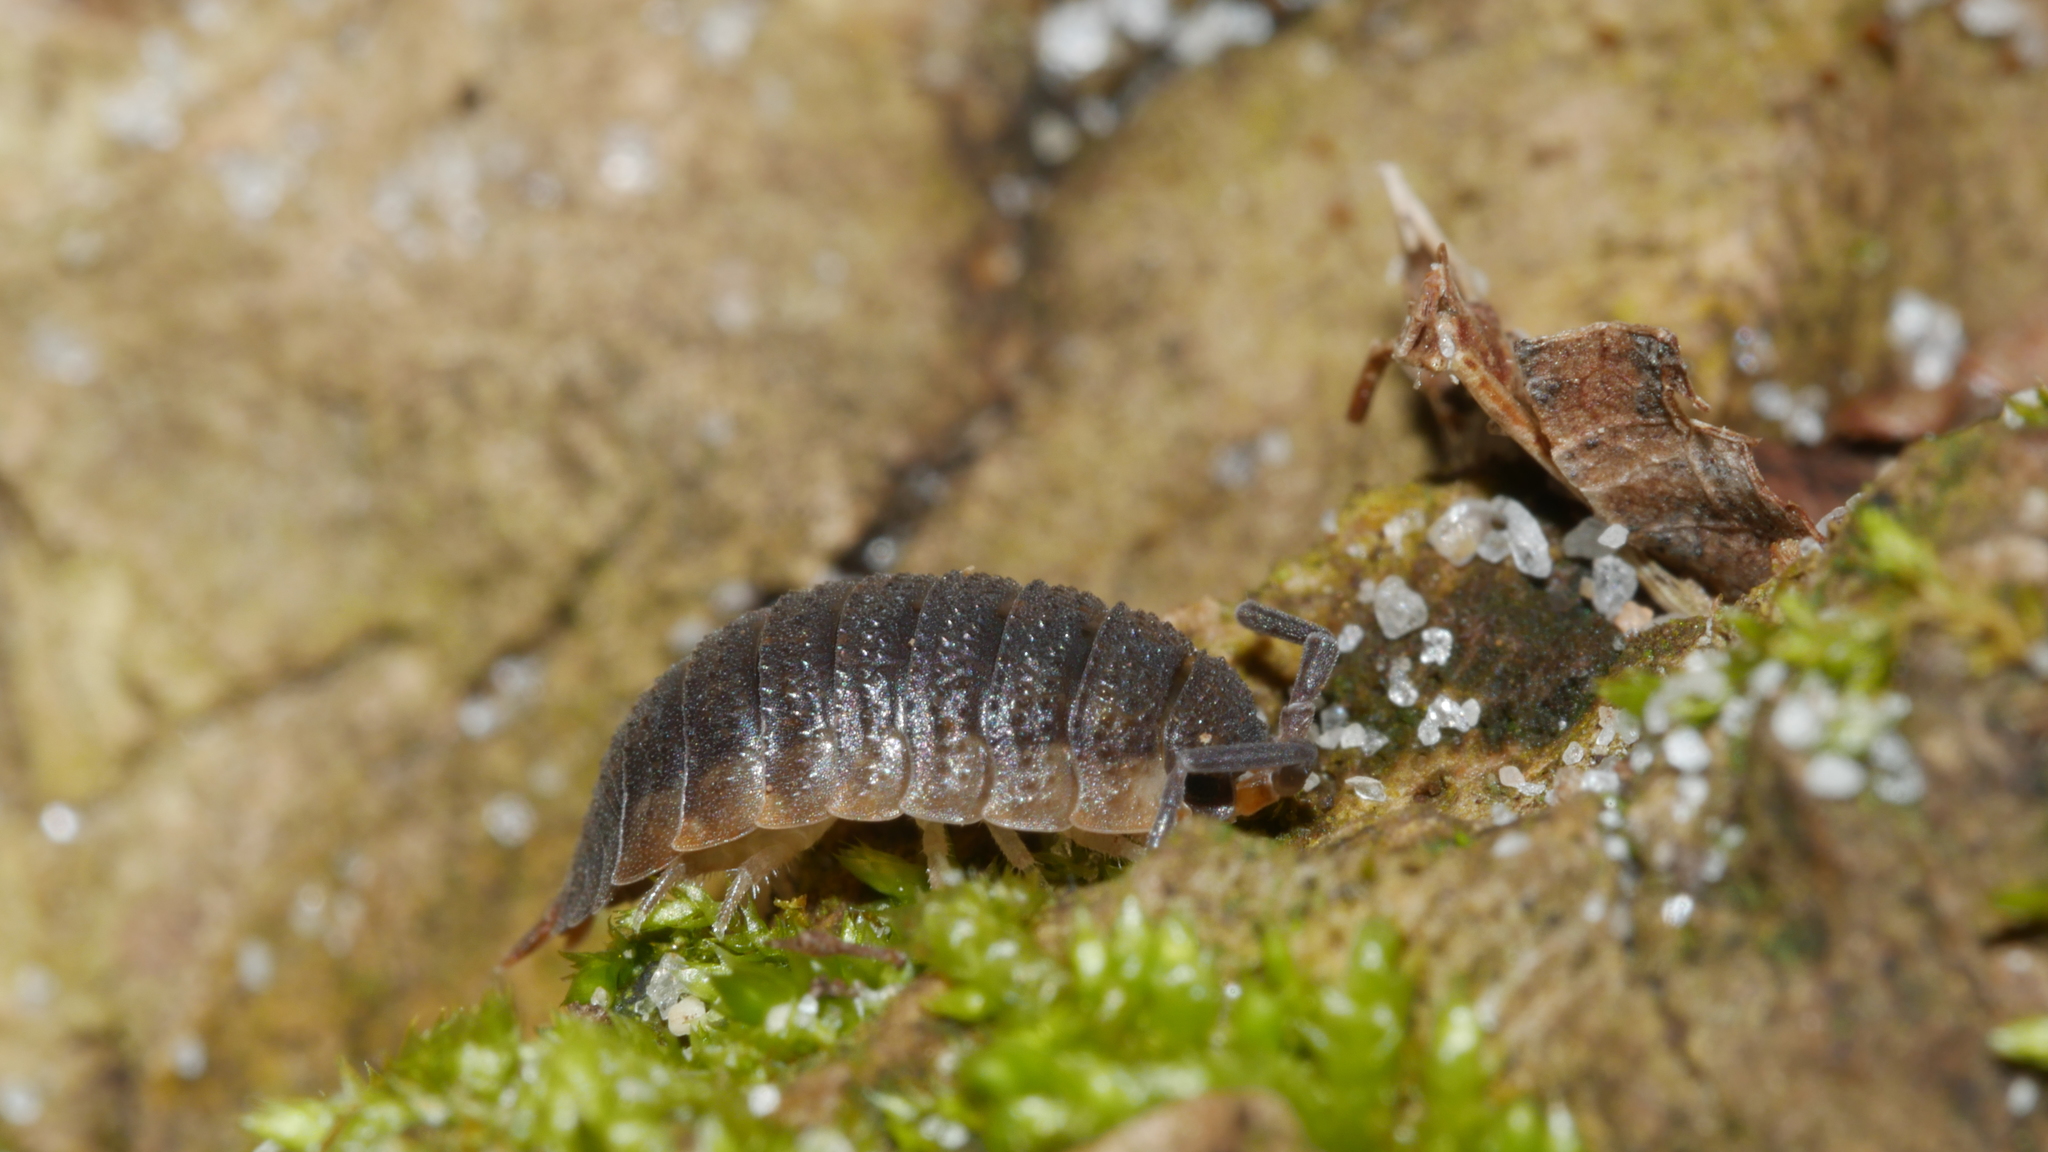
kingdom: Animalia
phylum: Arthropoda
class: Malacostraca
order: Isopoda
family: Porcellionidae
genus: Porcellio
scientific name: Porcellio scaber
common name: Common rough woodlouse
